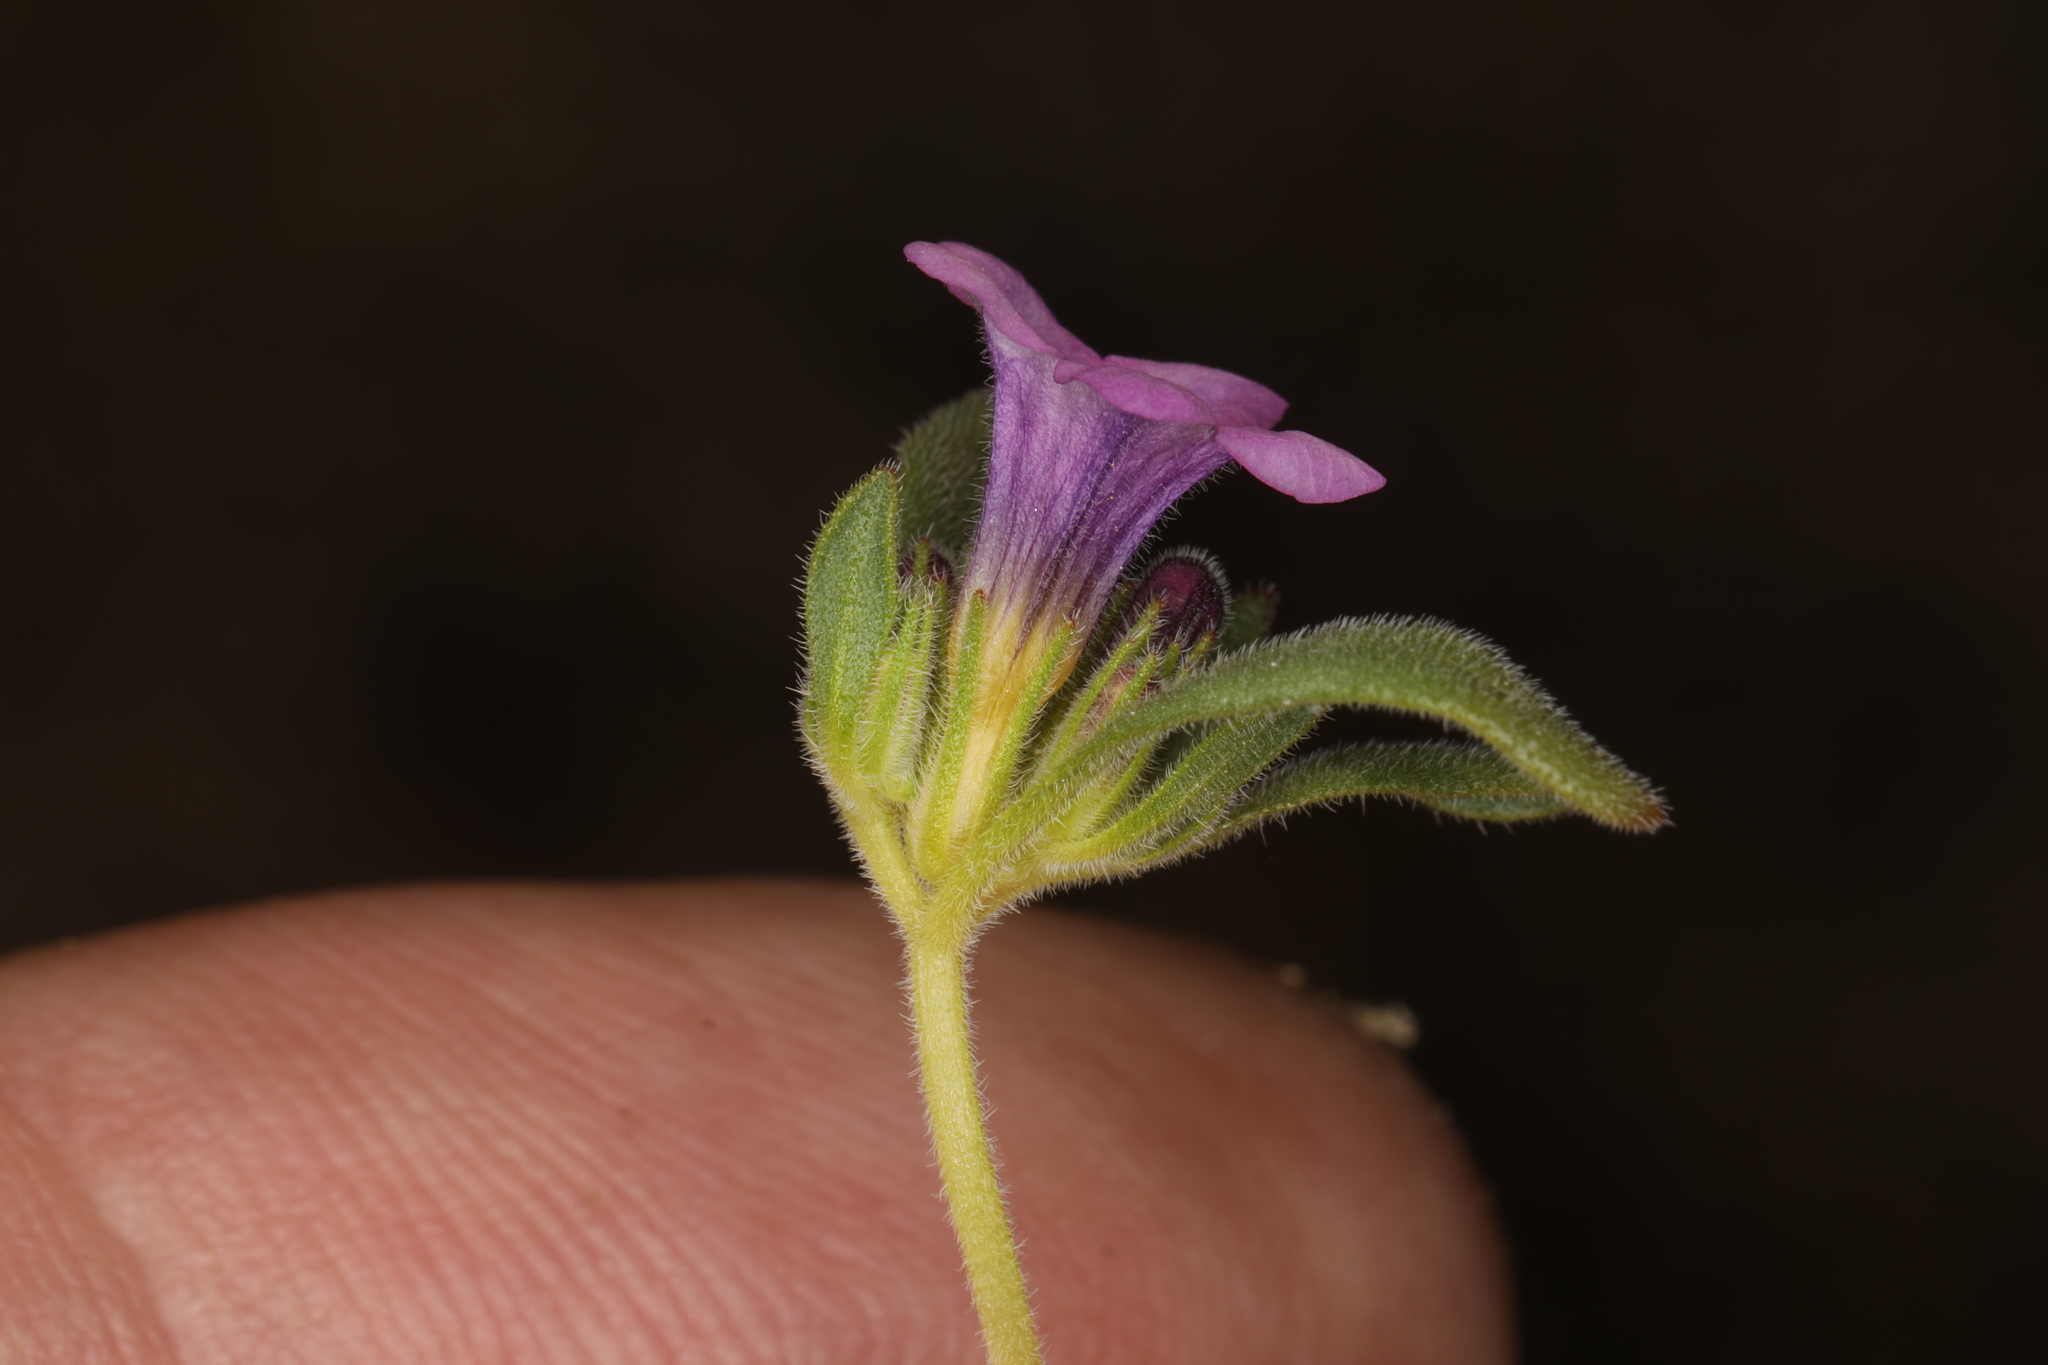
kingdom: Plantae
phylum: Tracheophyta
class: Magnoliopsida
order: Boraginales
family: Namaceae
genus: Nama
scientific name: Nama demissa
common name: Leafy nama
